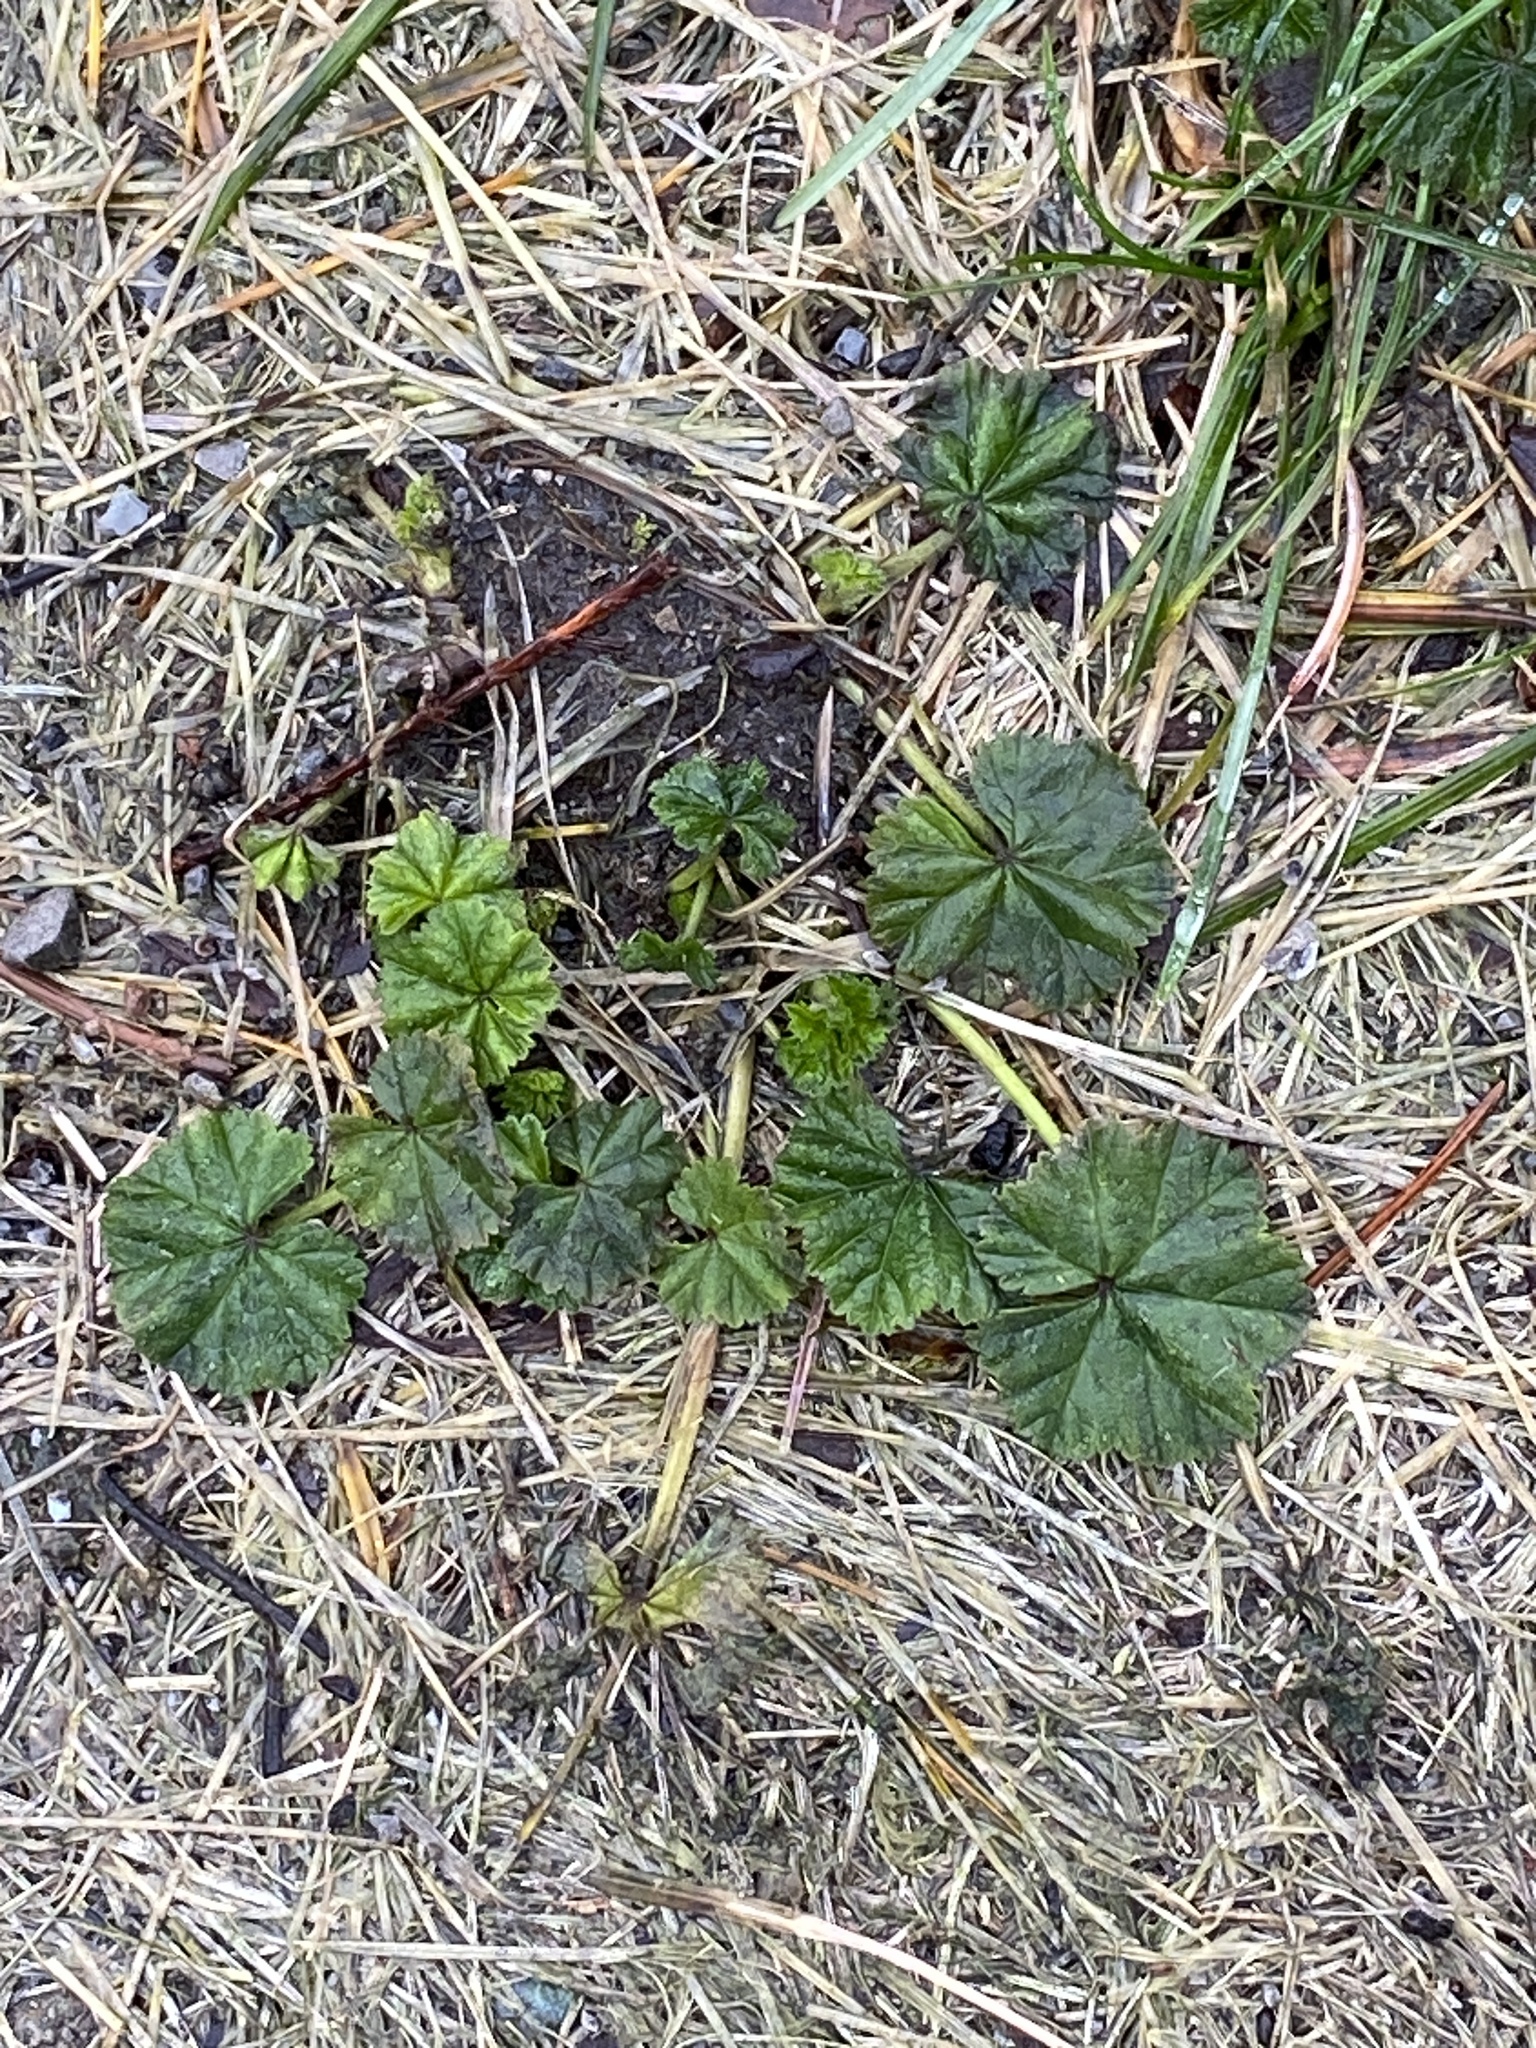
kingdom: Plantae
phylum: Tracheophyta
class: Magnoliopsida
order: Malvales
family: Malvaceae
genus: Malva
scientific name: Malva neglecta
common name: Common mallow
